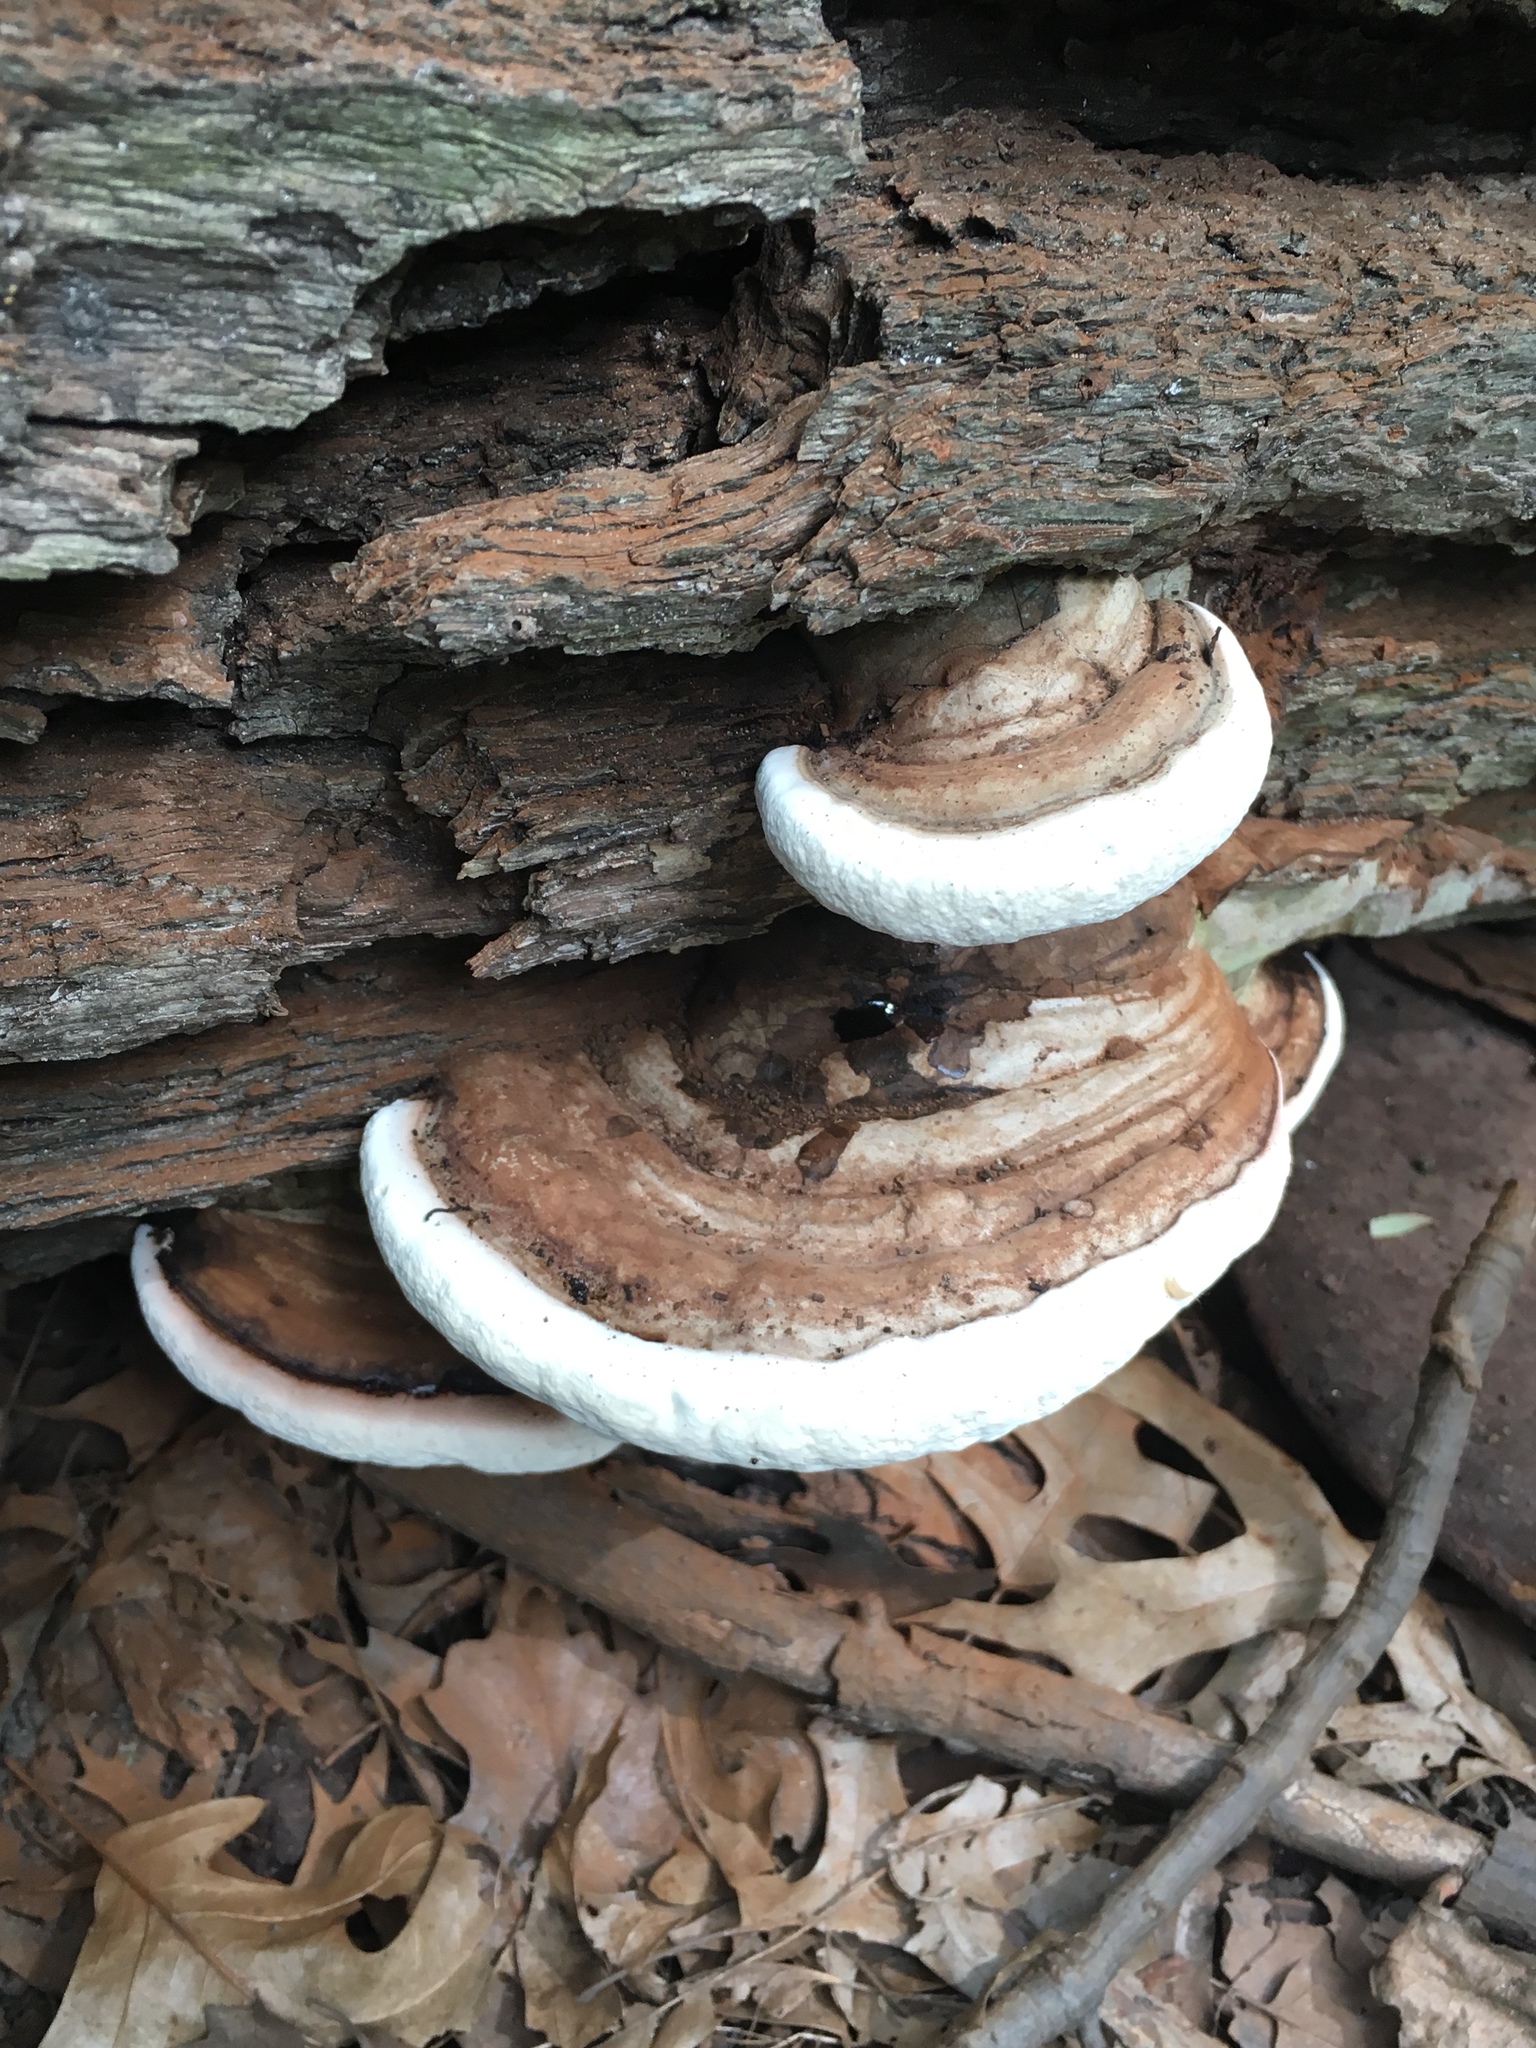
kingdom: Fungi
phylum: Basidiomycota
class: Agaricomycetes
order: Polyporales
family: Polyporaceae
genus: Ganoderma
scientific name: Ganoderma applanatum
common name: Artist's bracket
